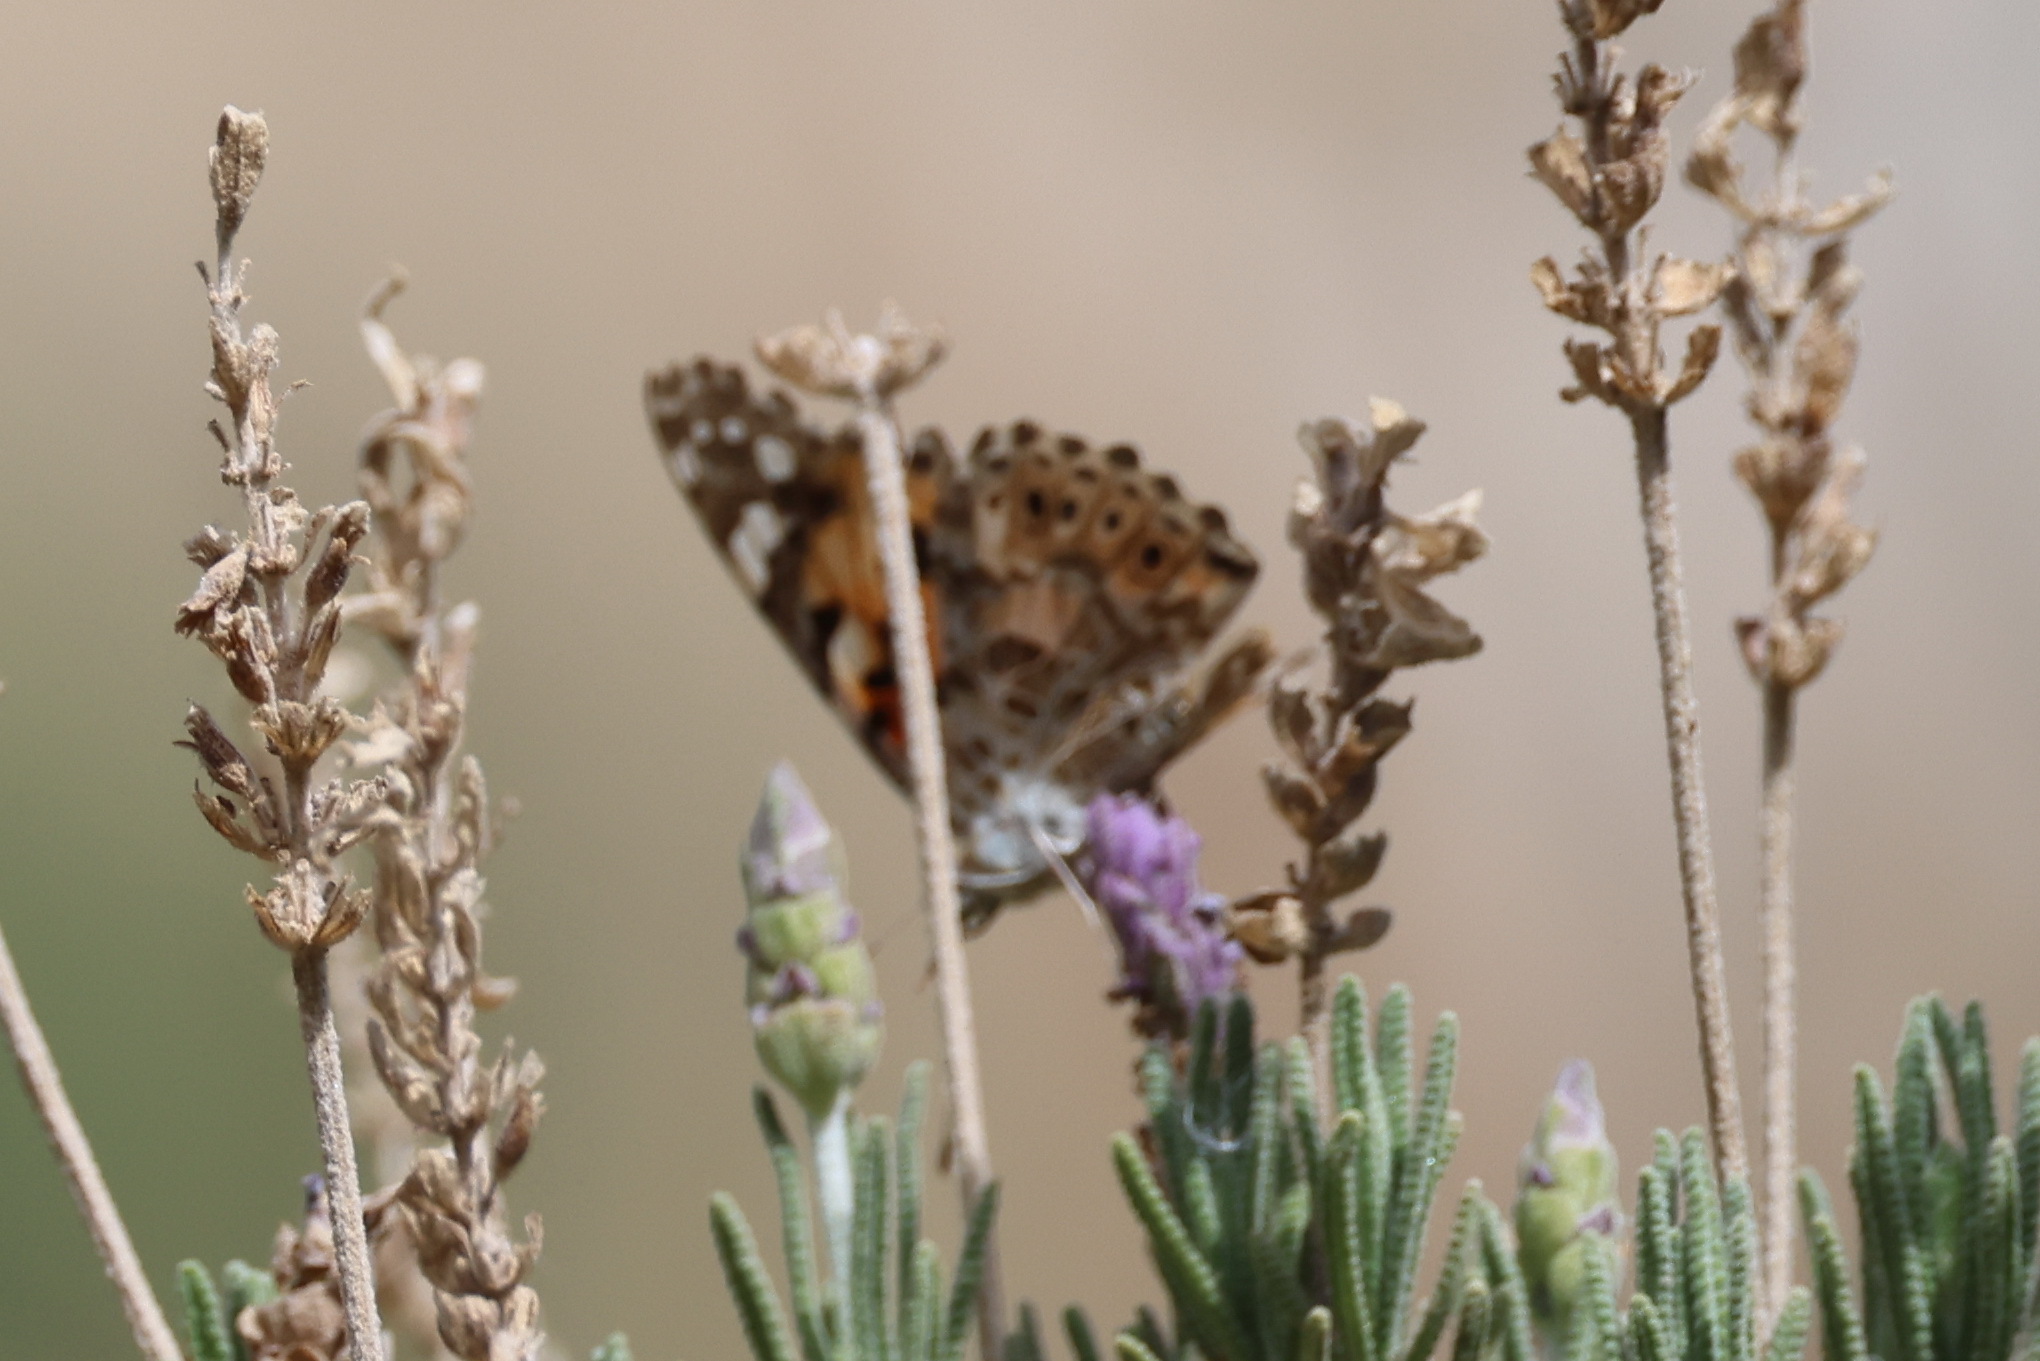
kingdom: Animalia
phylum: Arthropoda
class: Insecta
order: Lepidoptera
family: Nymphalidae
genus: Vanessa
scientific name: Vanessa cardui
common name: Painted lady
